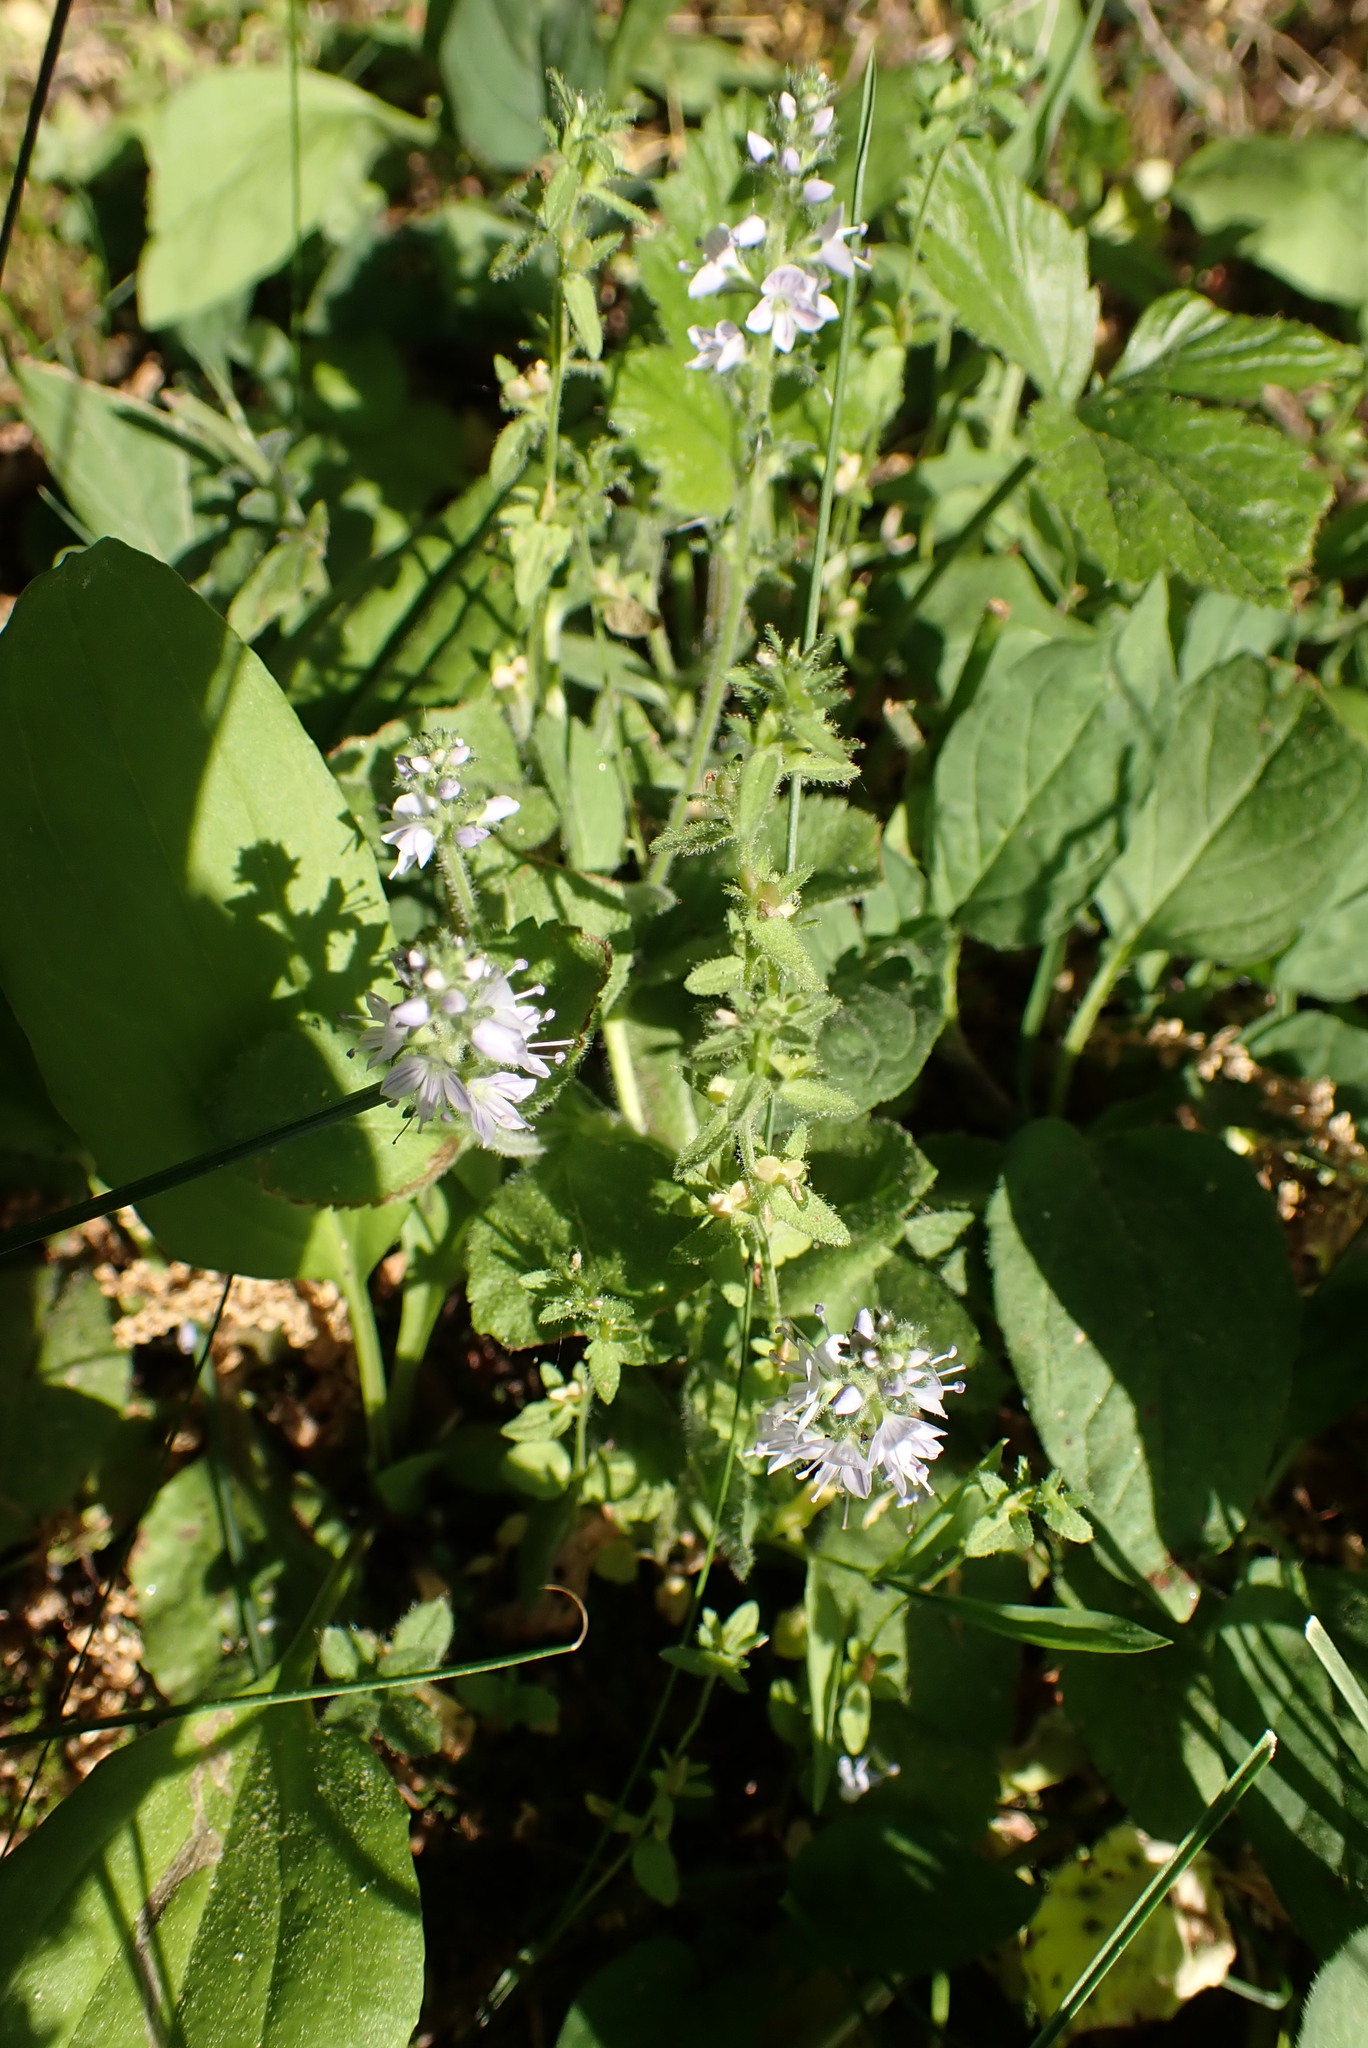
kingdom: Plantae
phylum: Tracheophyta
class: Magnoliopsida
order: Lamiales
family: Plantaginaceae
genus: Veronica
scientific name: Veronica officinalis
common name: Common speedwell
